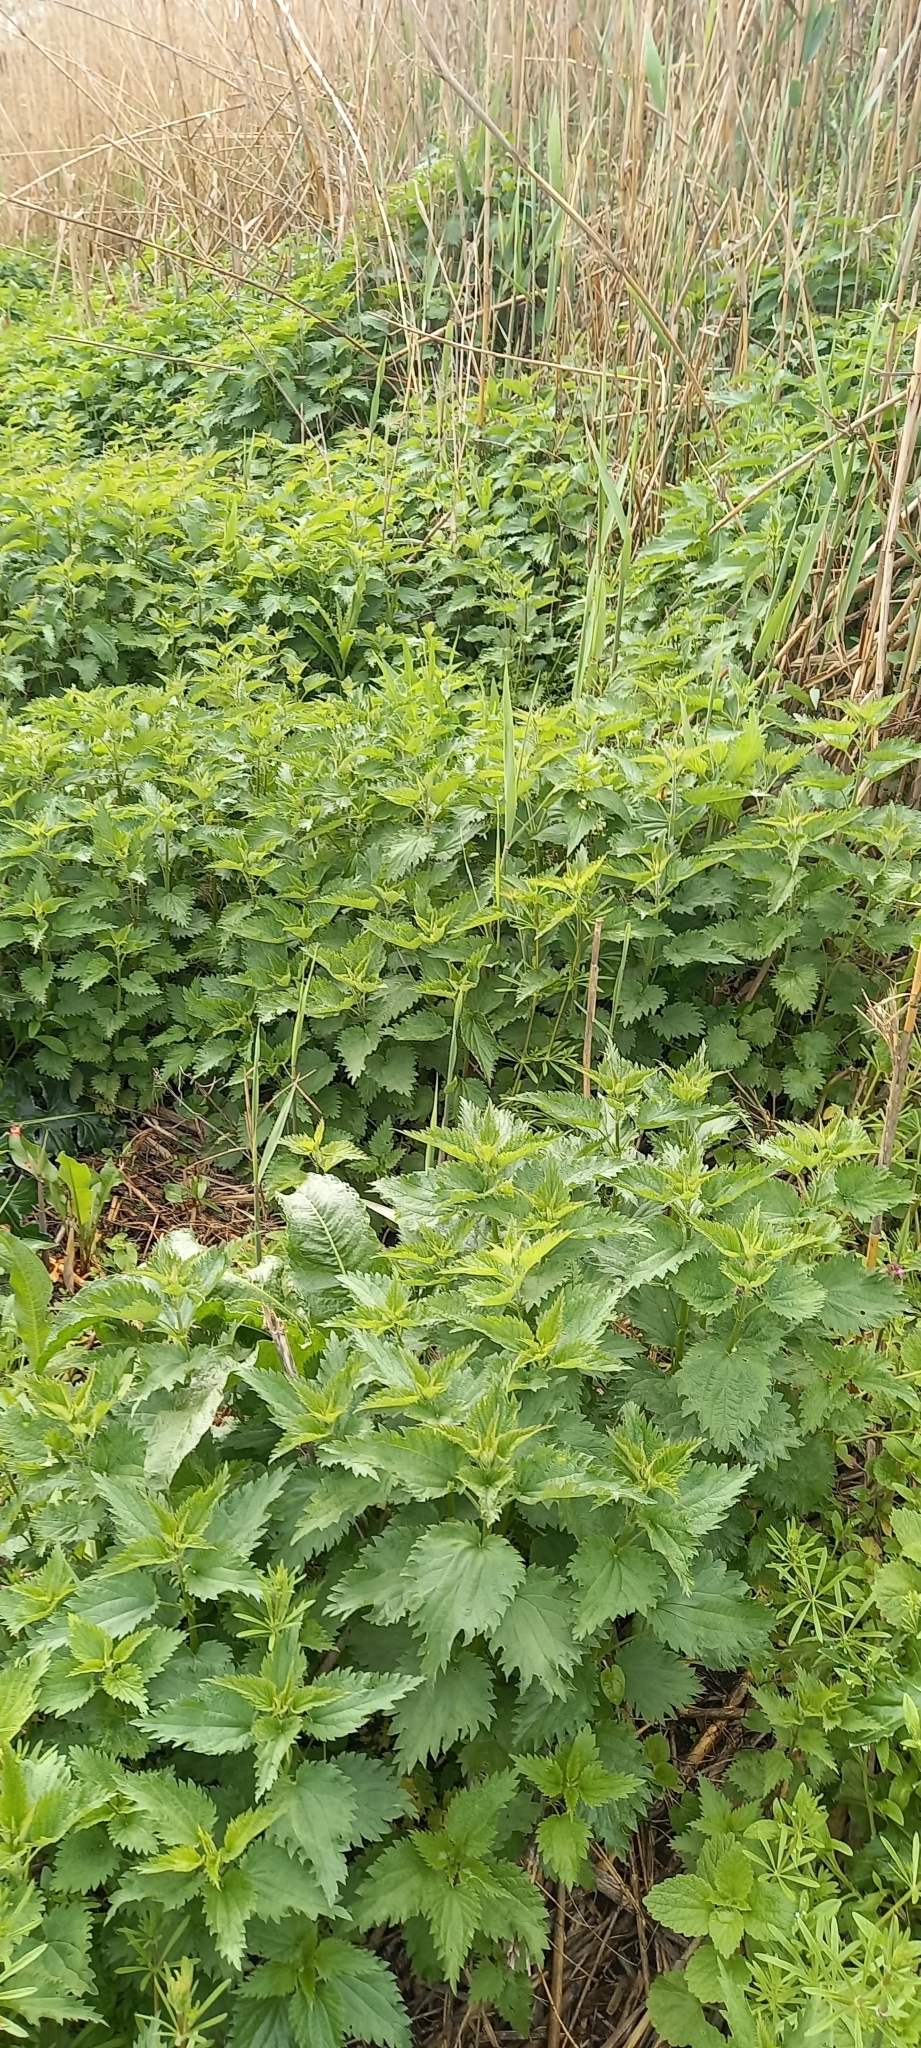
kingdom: Plantae
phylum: Tracheophyta
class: Magnoliopsida
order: Rosales
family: Urticaceae
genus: Urtica
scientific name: Urtica dioica
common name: Common nettle
